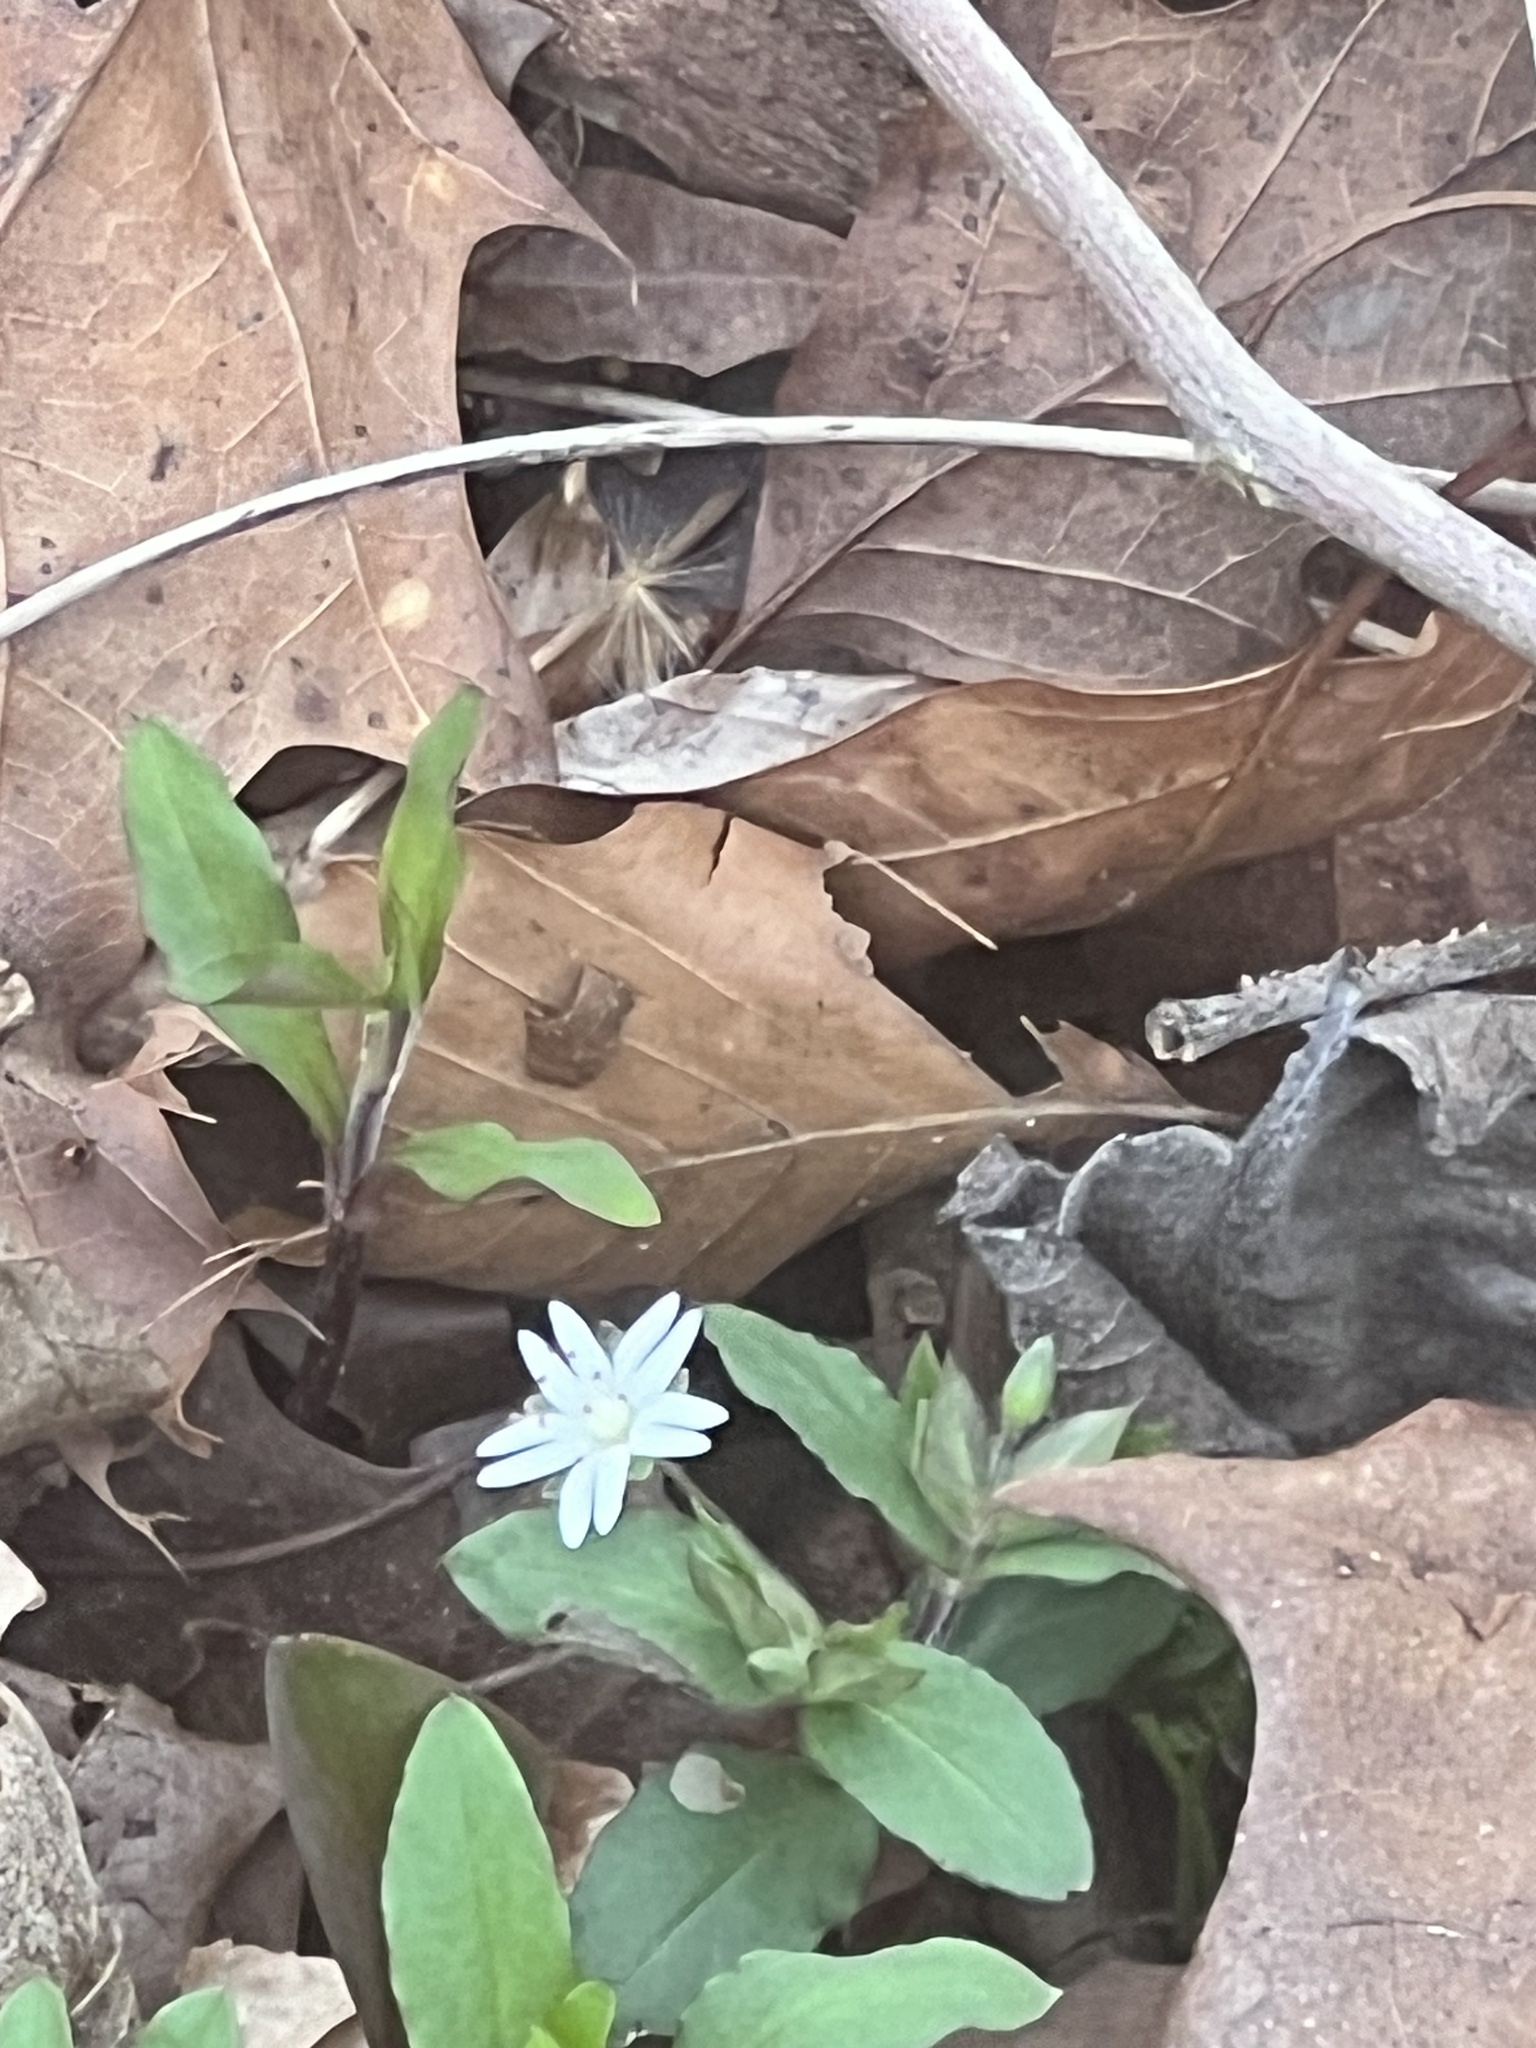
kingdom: Plantae
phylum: Tracheophyta
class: Magnoliopsida
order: Caryophyllales
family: Caryophyllaceae
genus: Stellaria
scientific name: Stellaria pubera
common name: Star chickweed
